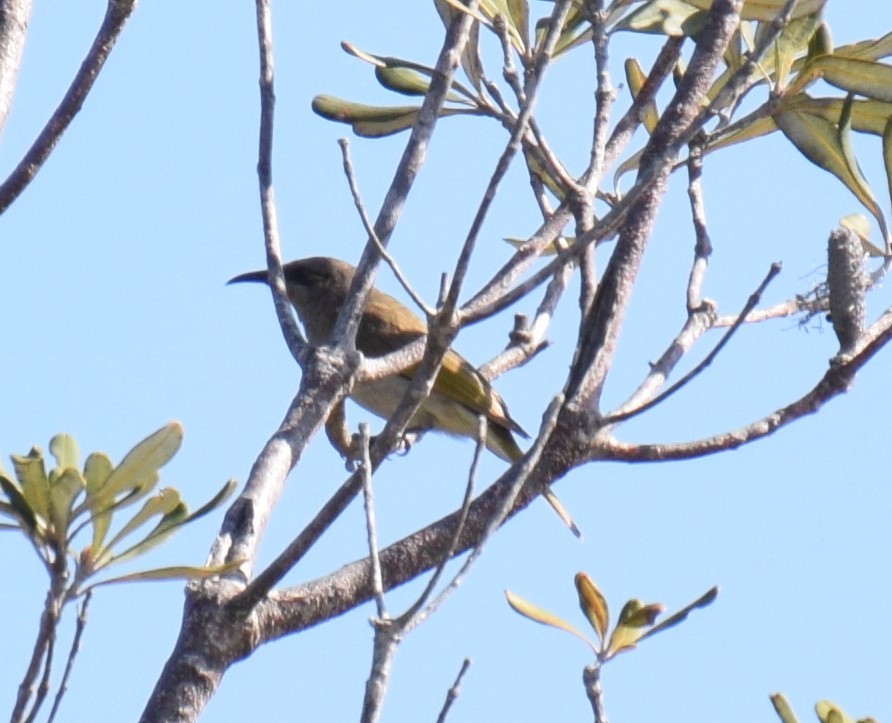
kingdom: Animalia
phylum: Chordata
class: Aves
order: Passeriformes
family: Meliphagidae
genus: Lichmera
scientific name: Lichmera indistincta
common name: Brown honeyeater
